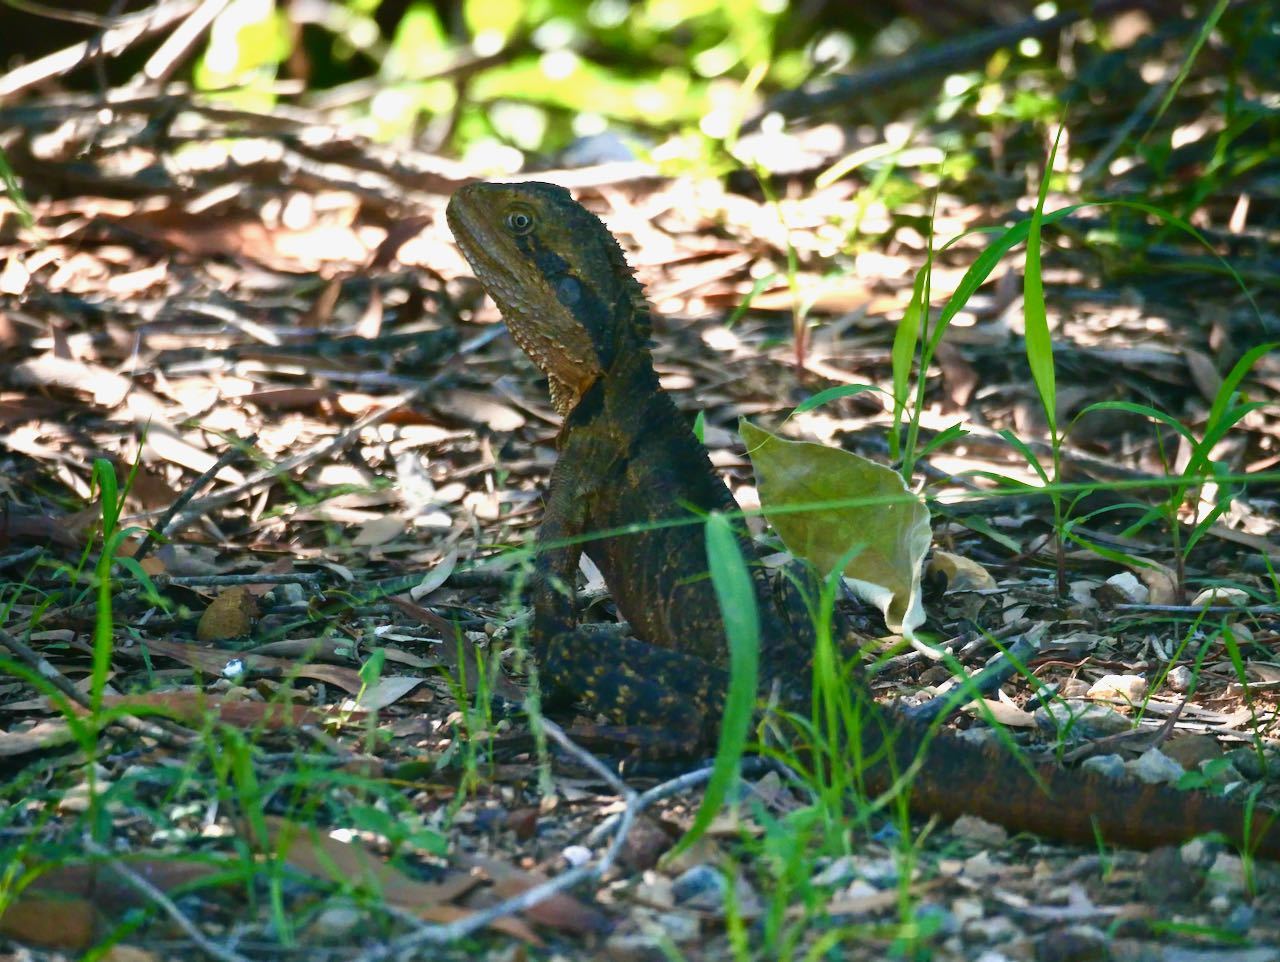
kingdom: Animalia
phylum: Chordata
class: Squamata
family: Agamidae
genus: Intellagama
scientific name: Intellagama lesueurii
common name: Eastern water dragon
